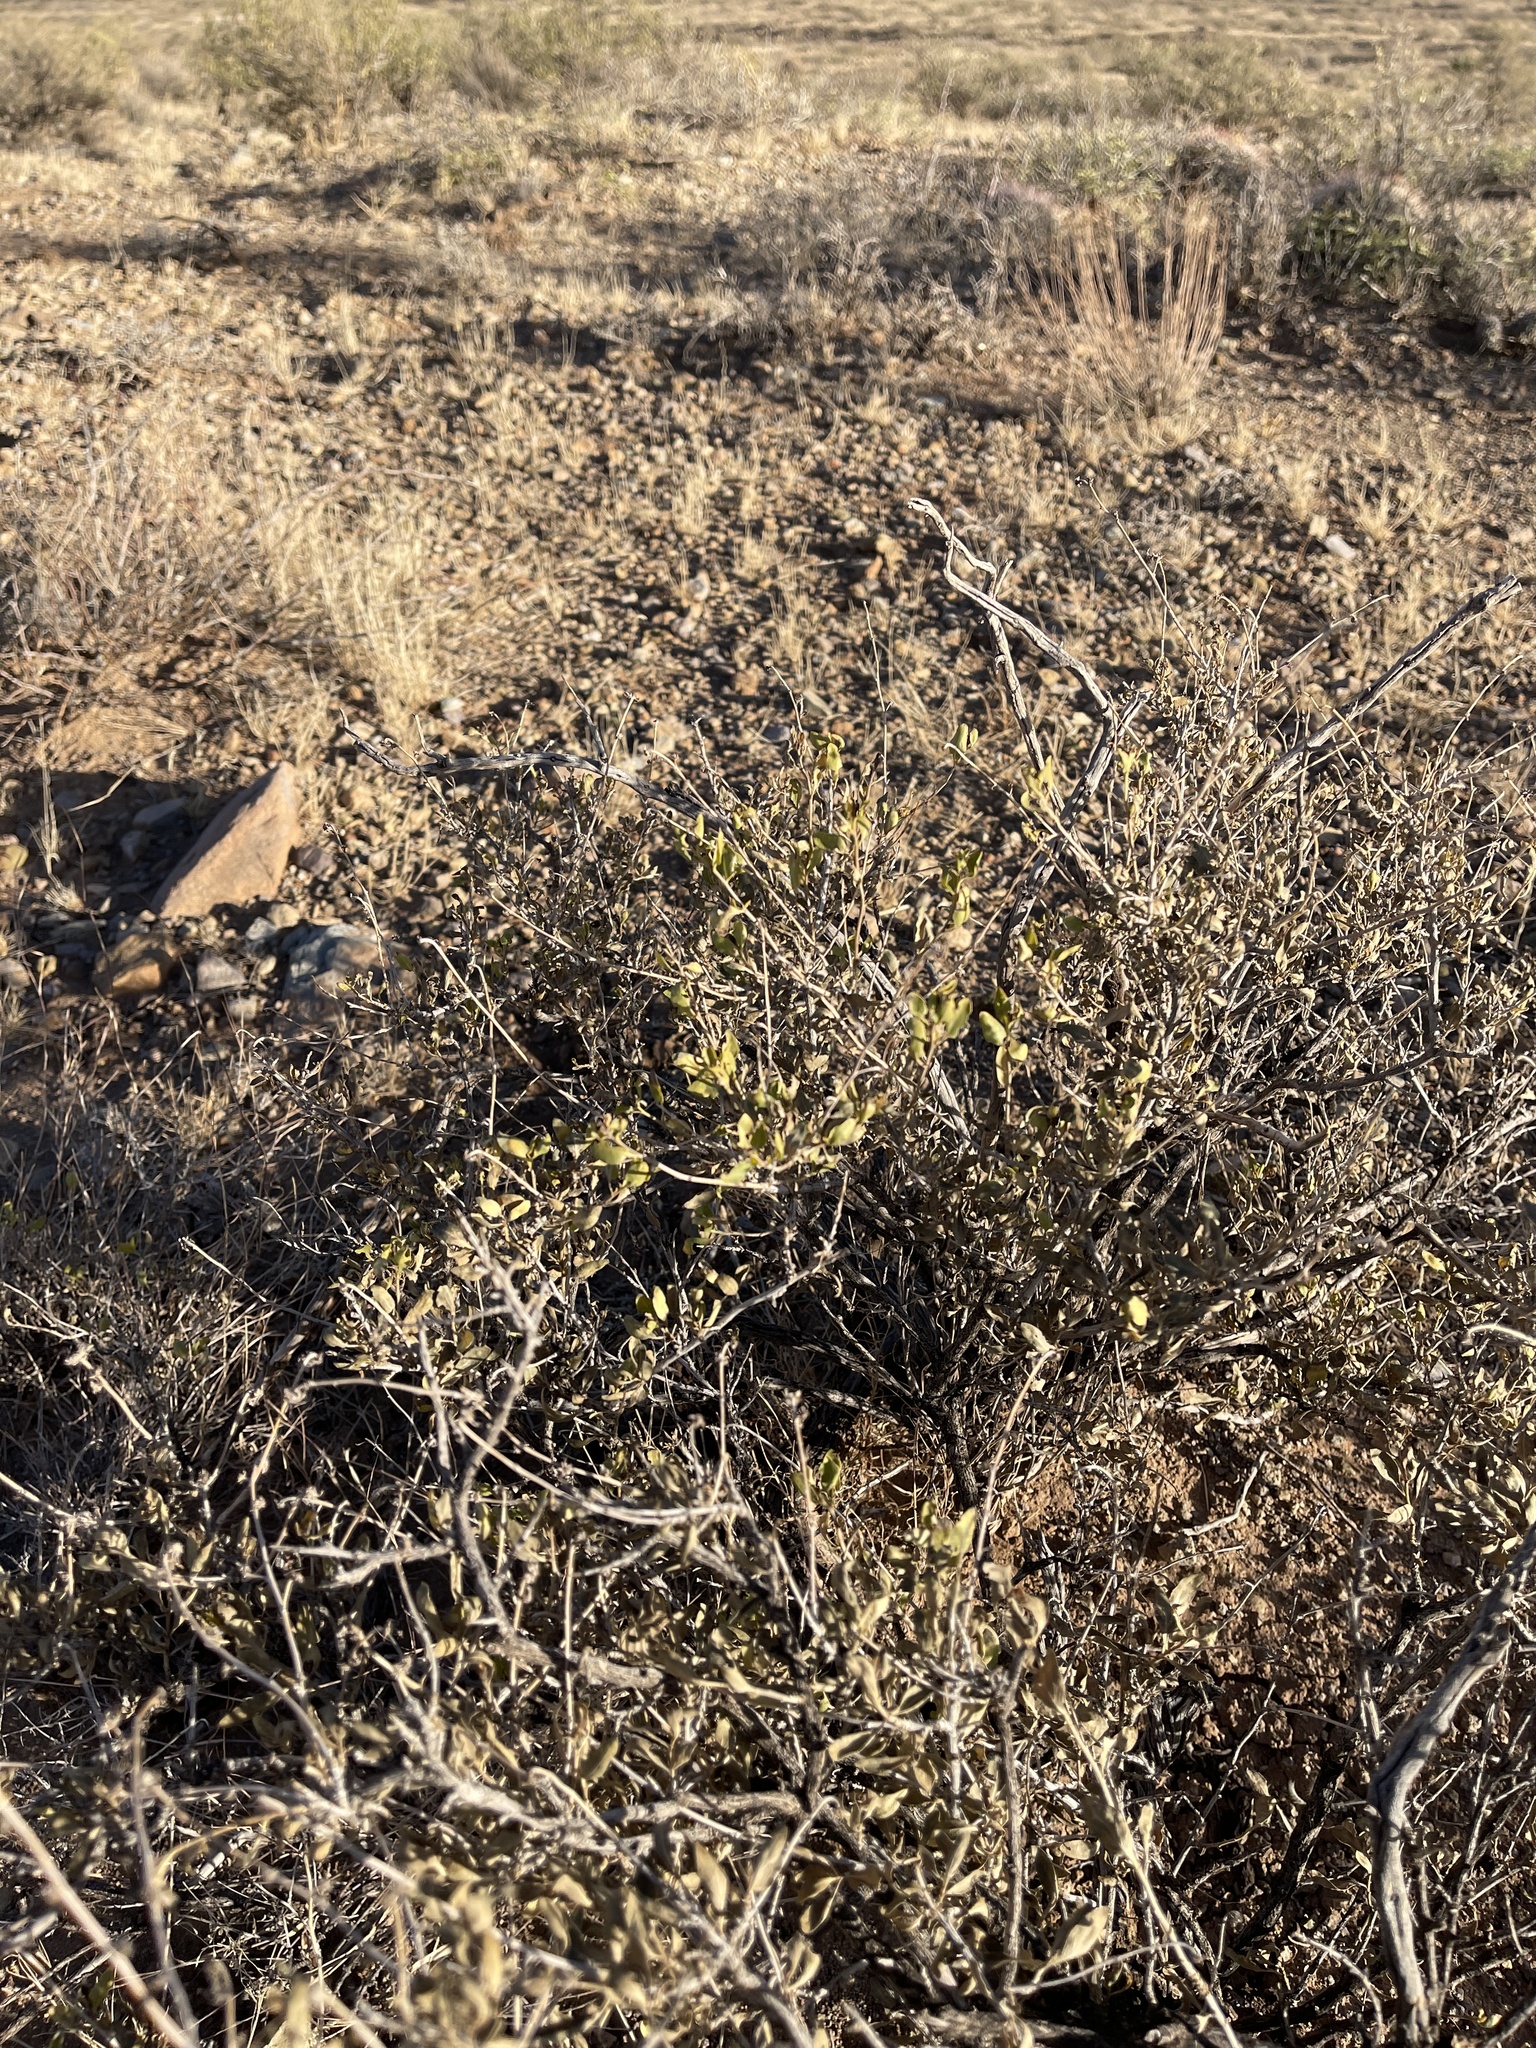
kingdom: Plantae
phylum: Tracheophyta
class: Magnoliopsida
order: Asterales
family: Asteraceae
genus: Flourensia
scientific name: Flourensia cernua
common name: Varnishbush
